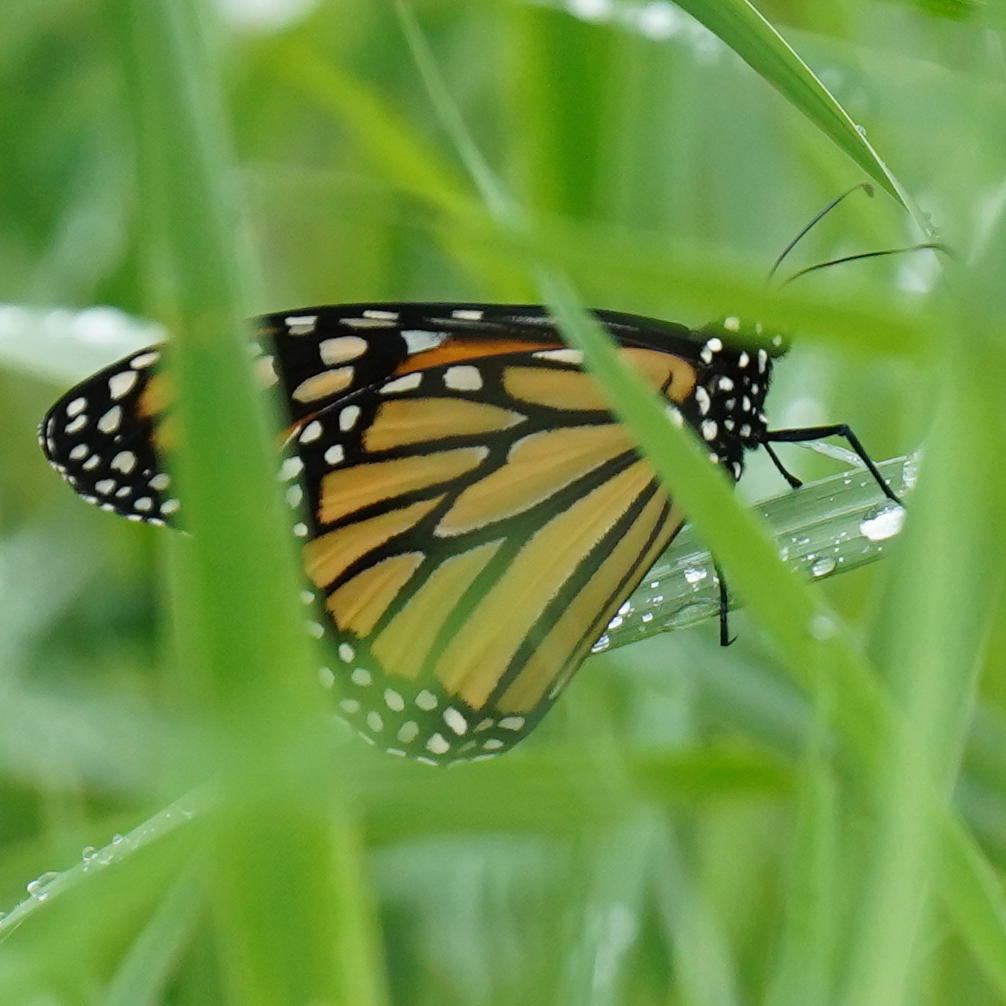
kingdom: Animalia
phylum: Arthropoda
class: Insecta
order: Lepidoptera
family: Nymphalidae
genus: Danaus
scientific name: Danaus plexippus
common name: Monarch
